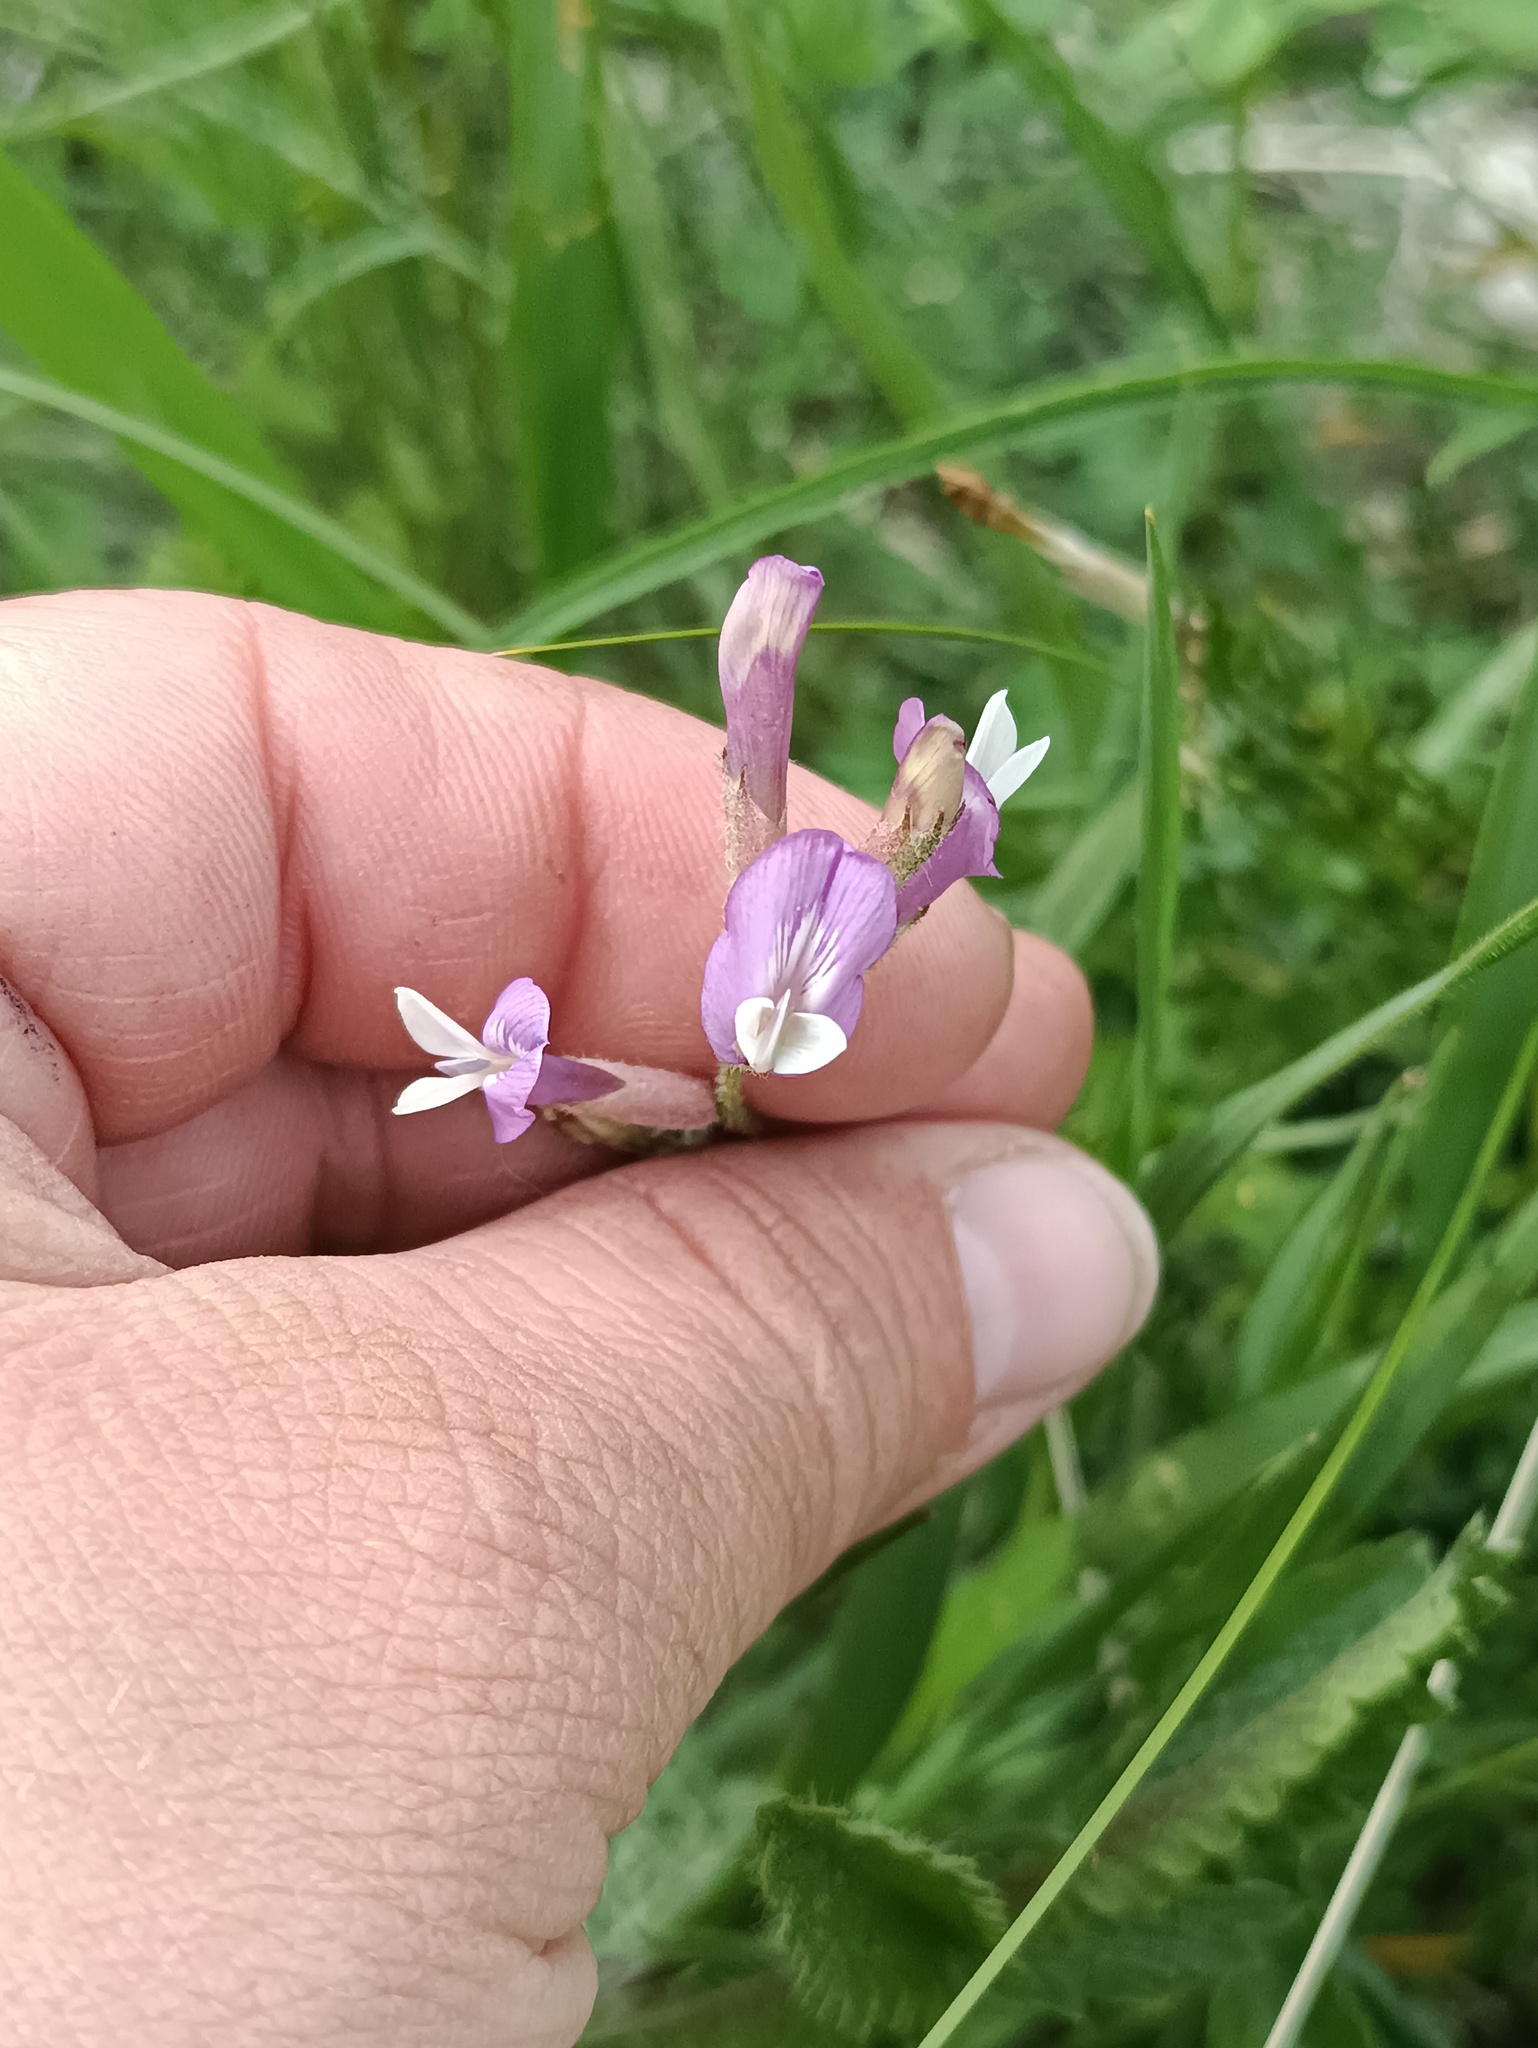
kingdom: Plantae
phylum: Tracheophyta
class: Magnoliopsida
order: Fabales
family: Fabaceae
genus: Astragalus
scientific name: Astragalus macropus
